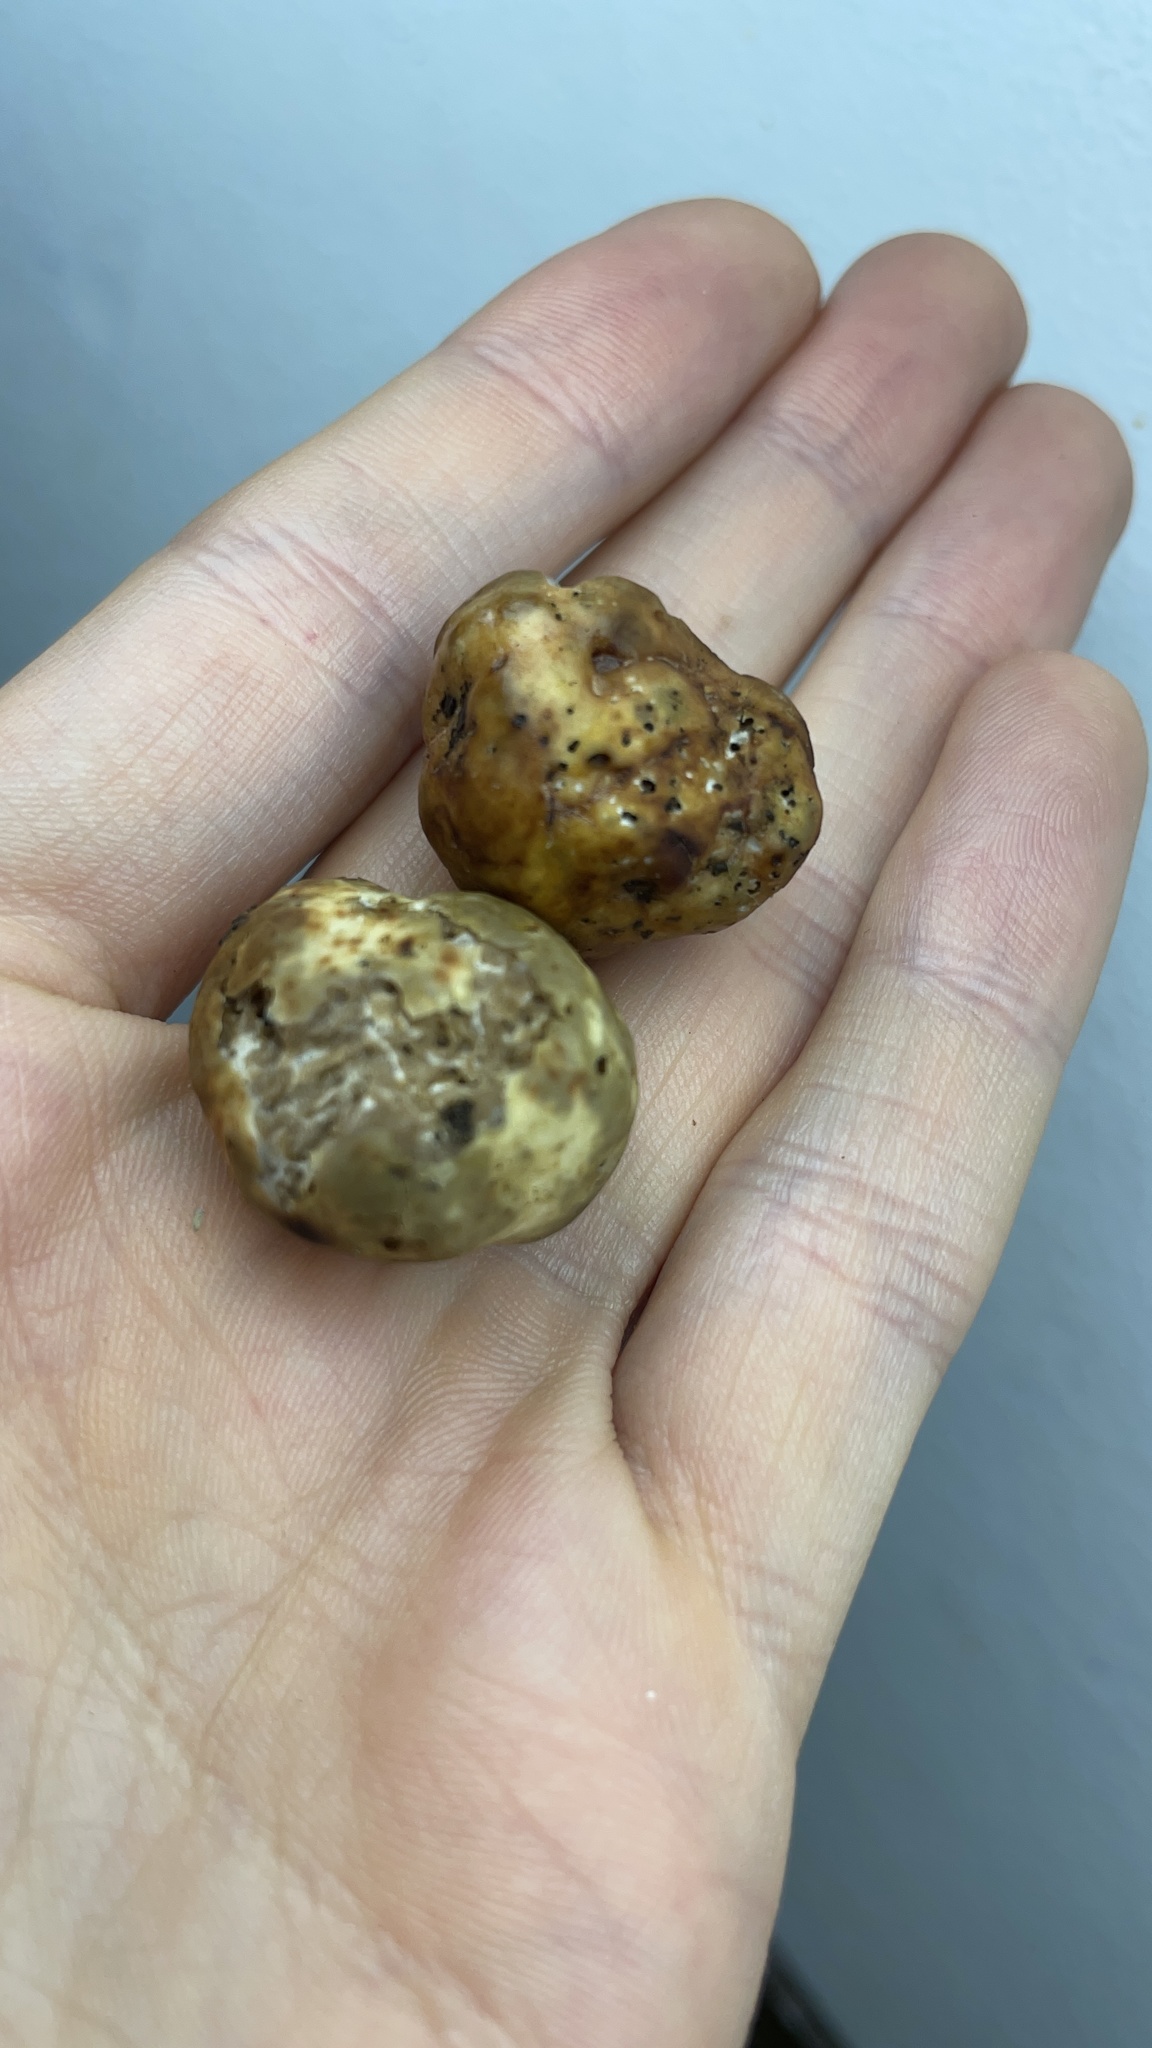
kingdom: Fungi
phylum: Ascomycota
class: Pezizomycetes
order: Pezizales
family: Tuberaceae
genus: Tuber
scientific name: Tuber oregonense
